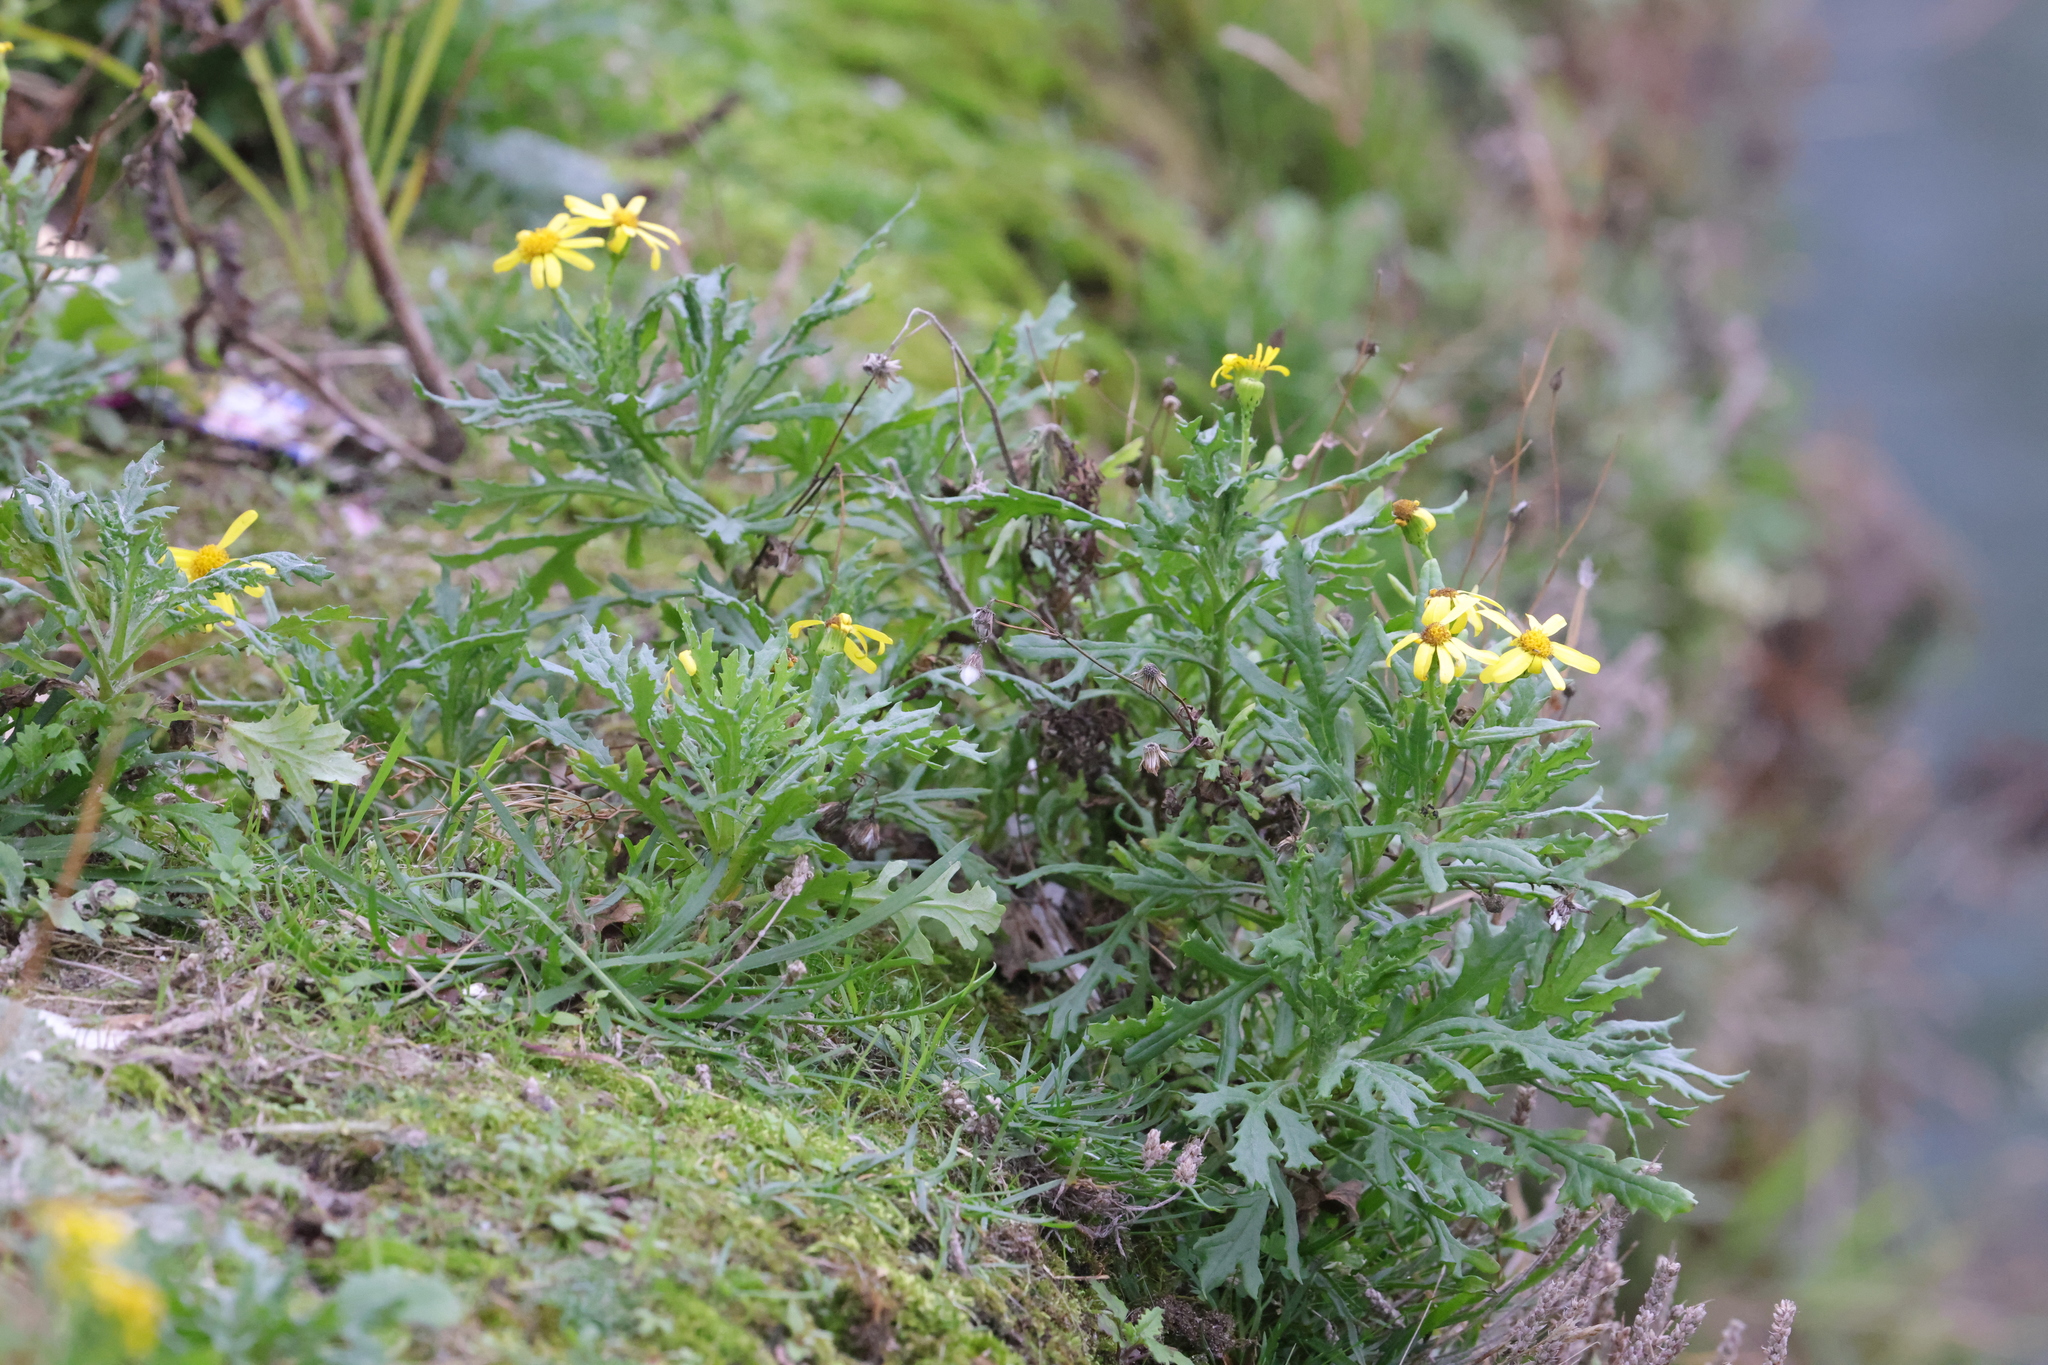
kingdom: Plantae
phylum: Tracheophyta
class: Magnoliopsida
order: Asterales
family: Asteraceae
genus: Senecio
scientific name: Senecio squalidus
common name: Oxford ragwort
